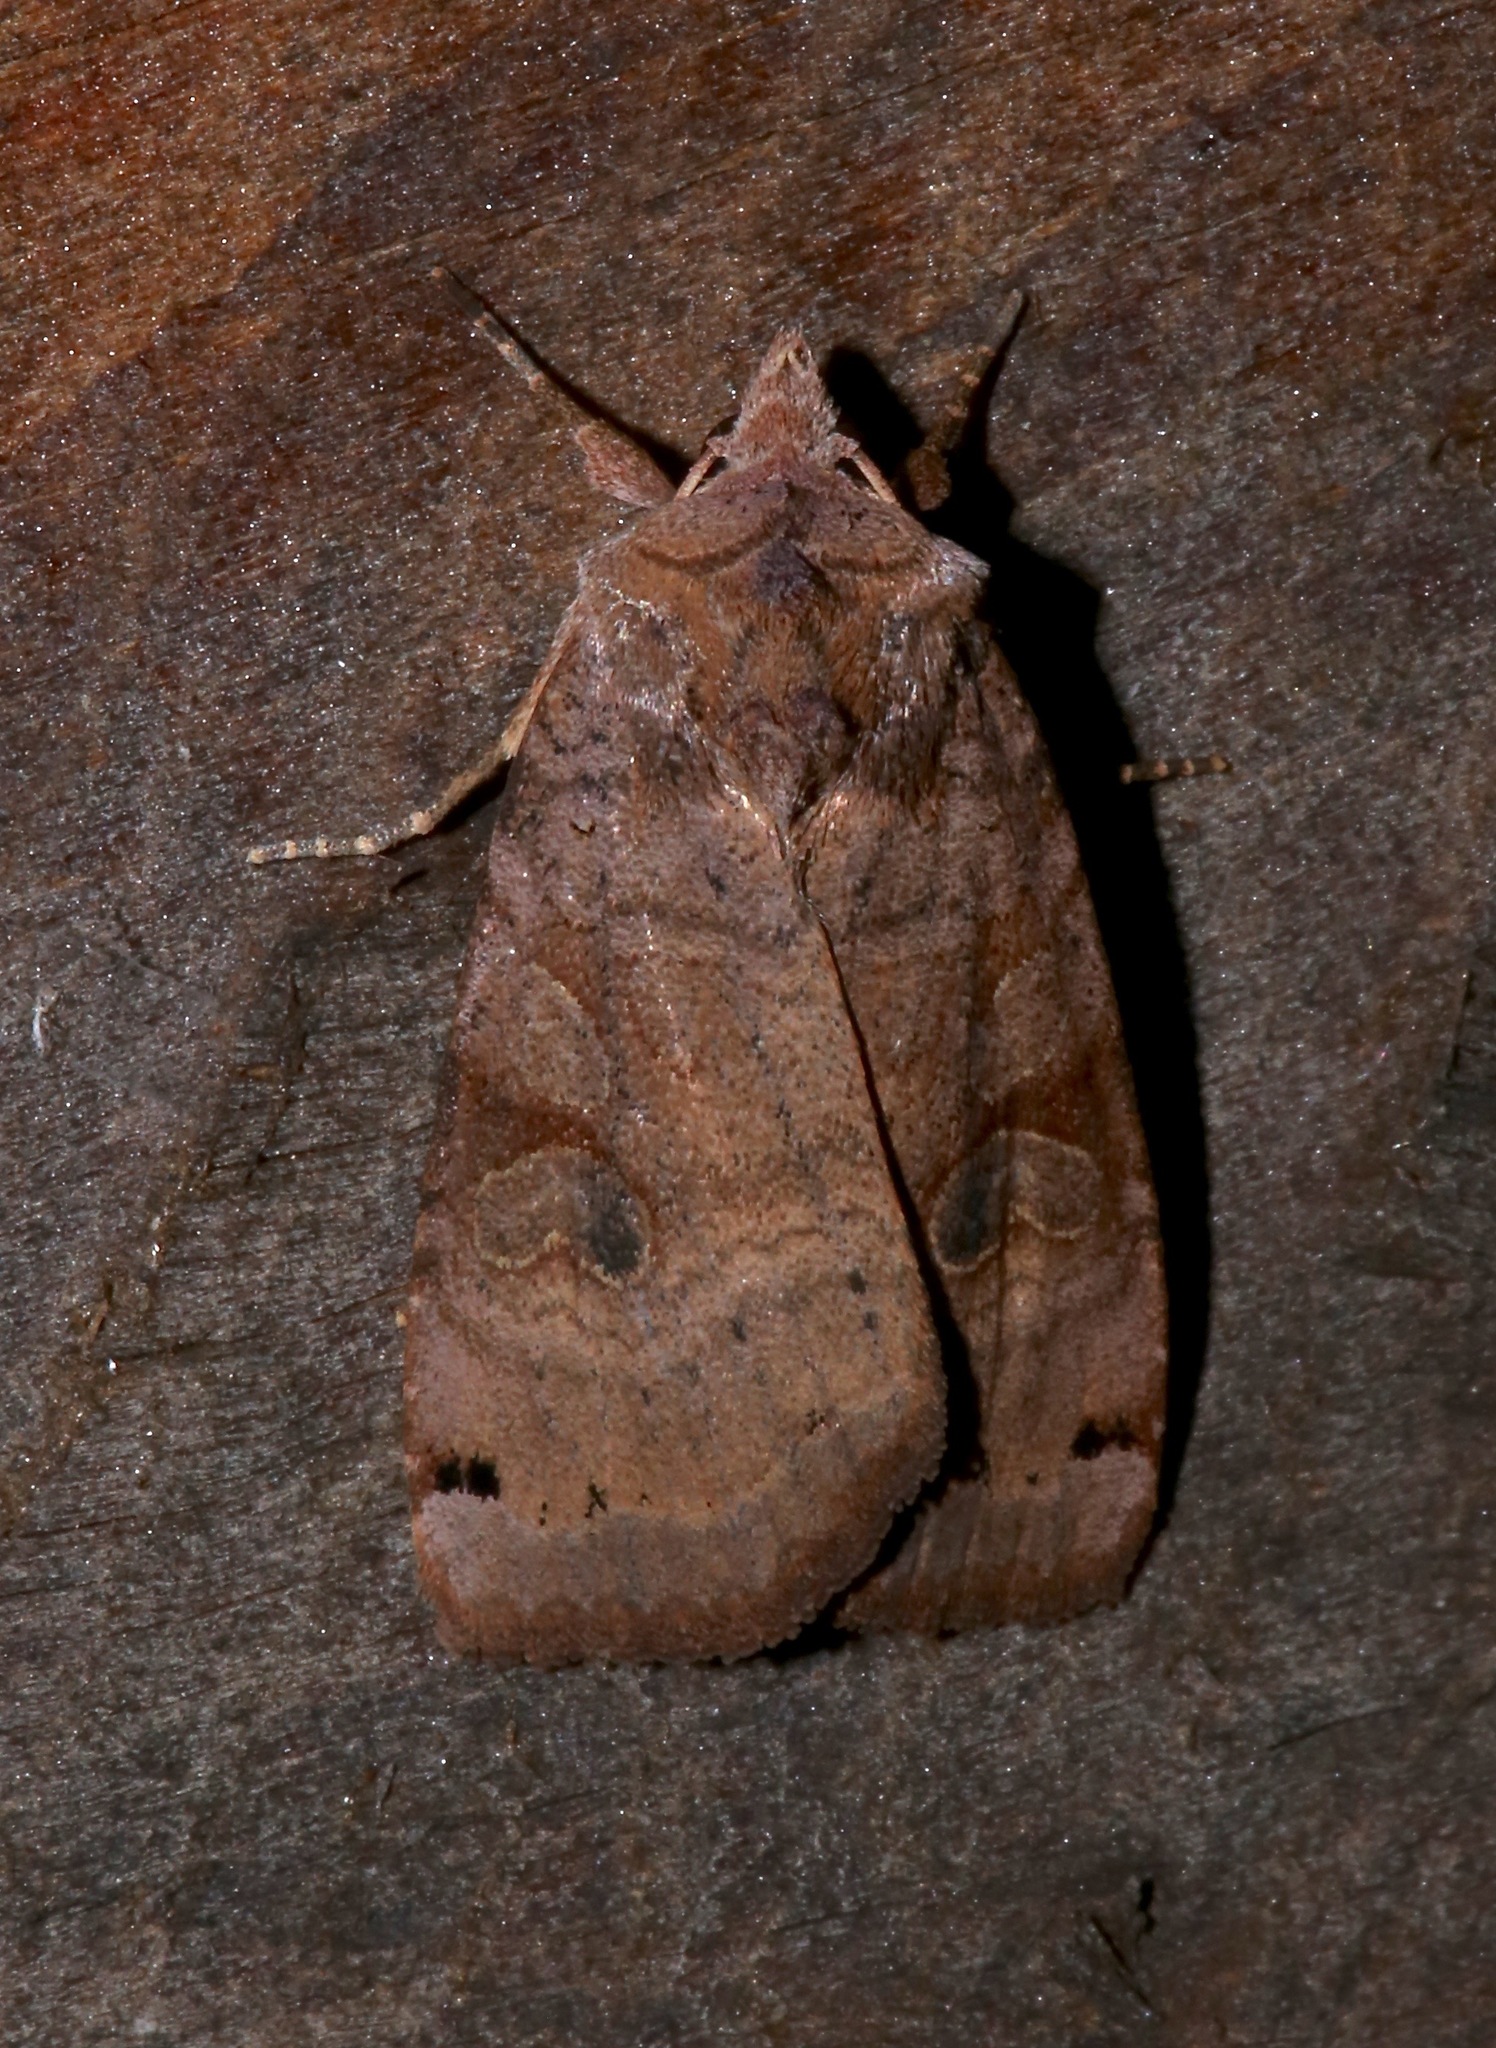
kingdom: Animalia
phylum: Arthropoda
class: Insecta
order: Lepidoptera
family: Noctuidae
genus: Xestia
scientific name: Xestia smithii
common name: Smith's dart
